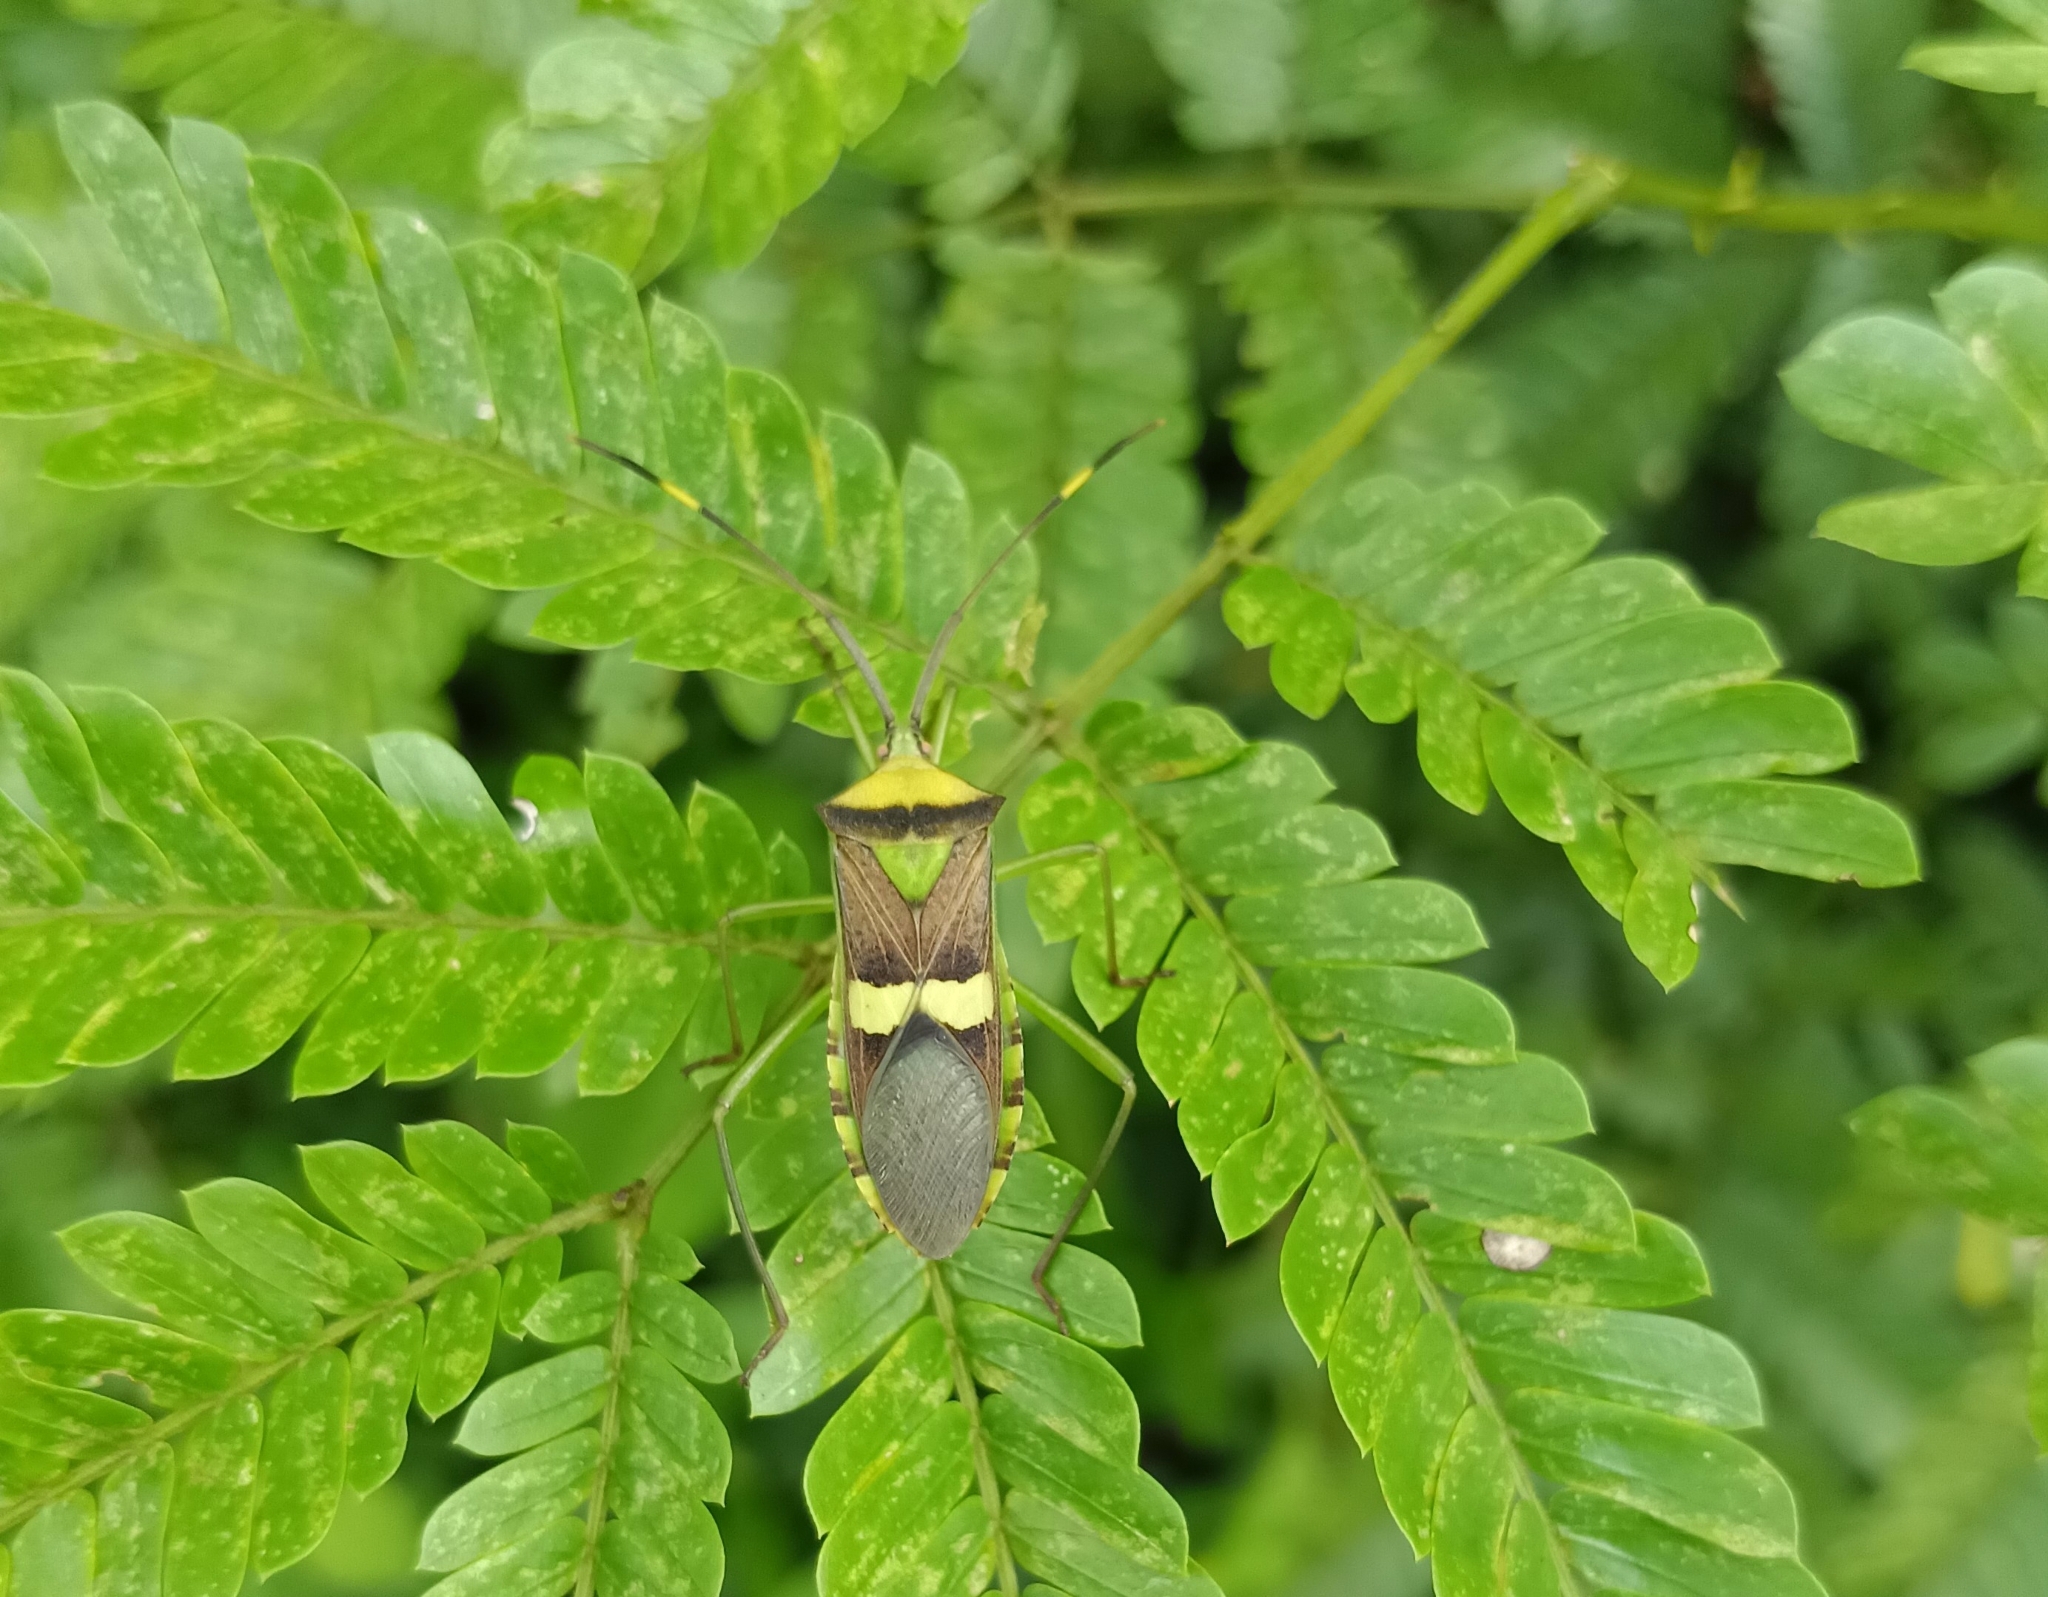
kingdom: Animalia
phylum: Arthropoda
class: Insecta
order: Hemiptera
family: Coreidae
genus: Prismatocerus
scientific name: Prismatocerus signatus
